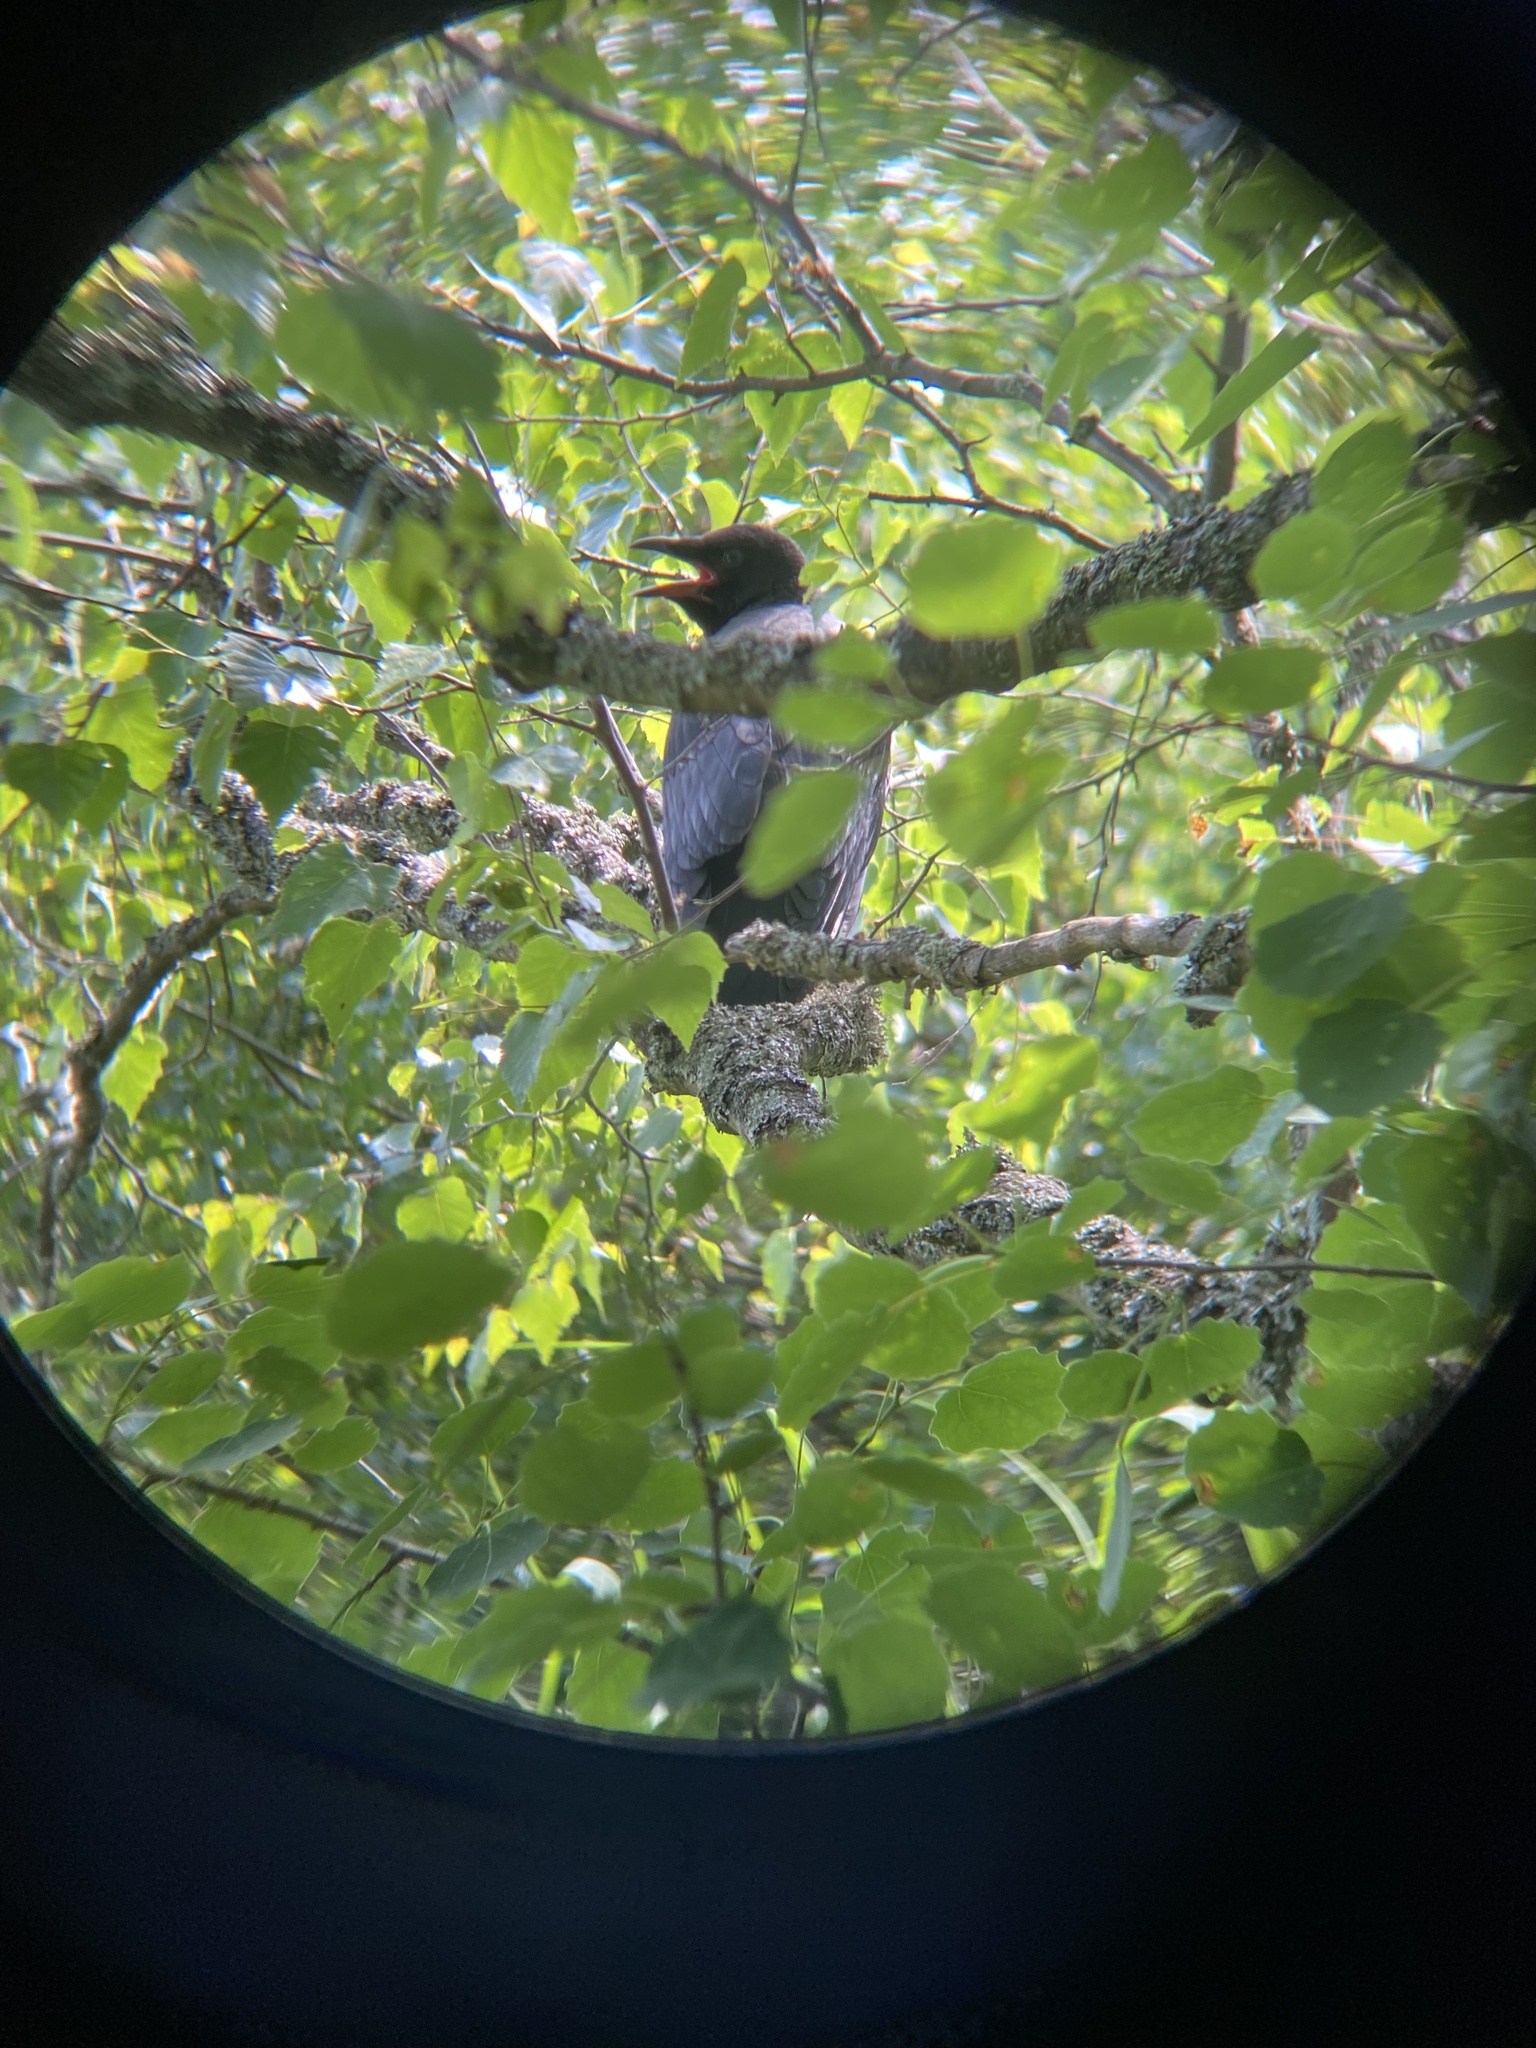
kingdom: Animalia
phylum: Chordata
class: Aves
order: Passeriformes
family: Corvidae
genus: Corvus
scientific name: Corvus cornix
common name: Hooded crow
